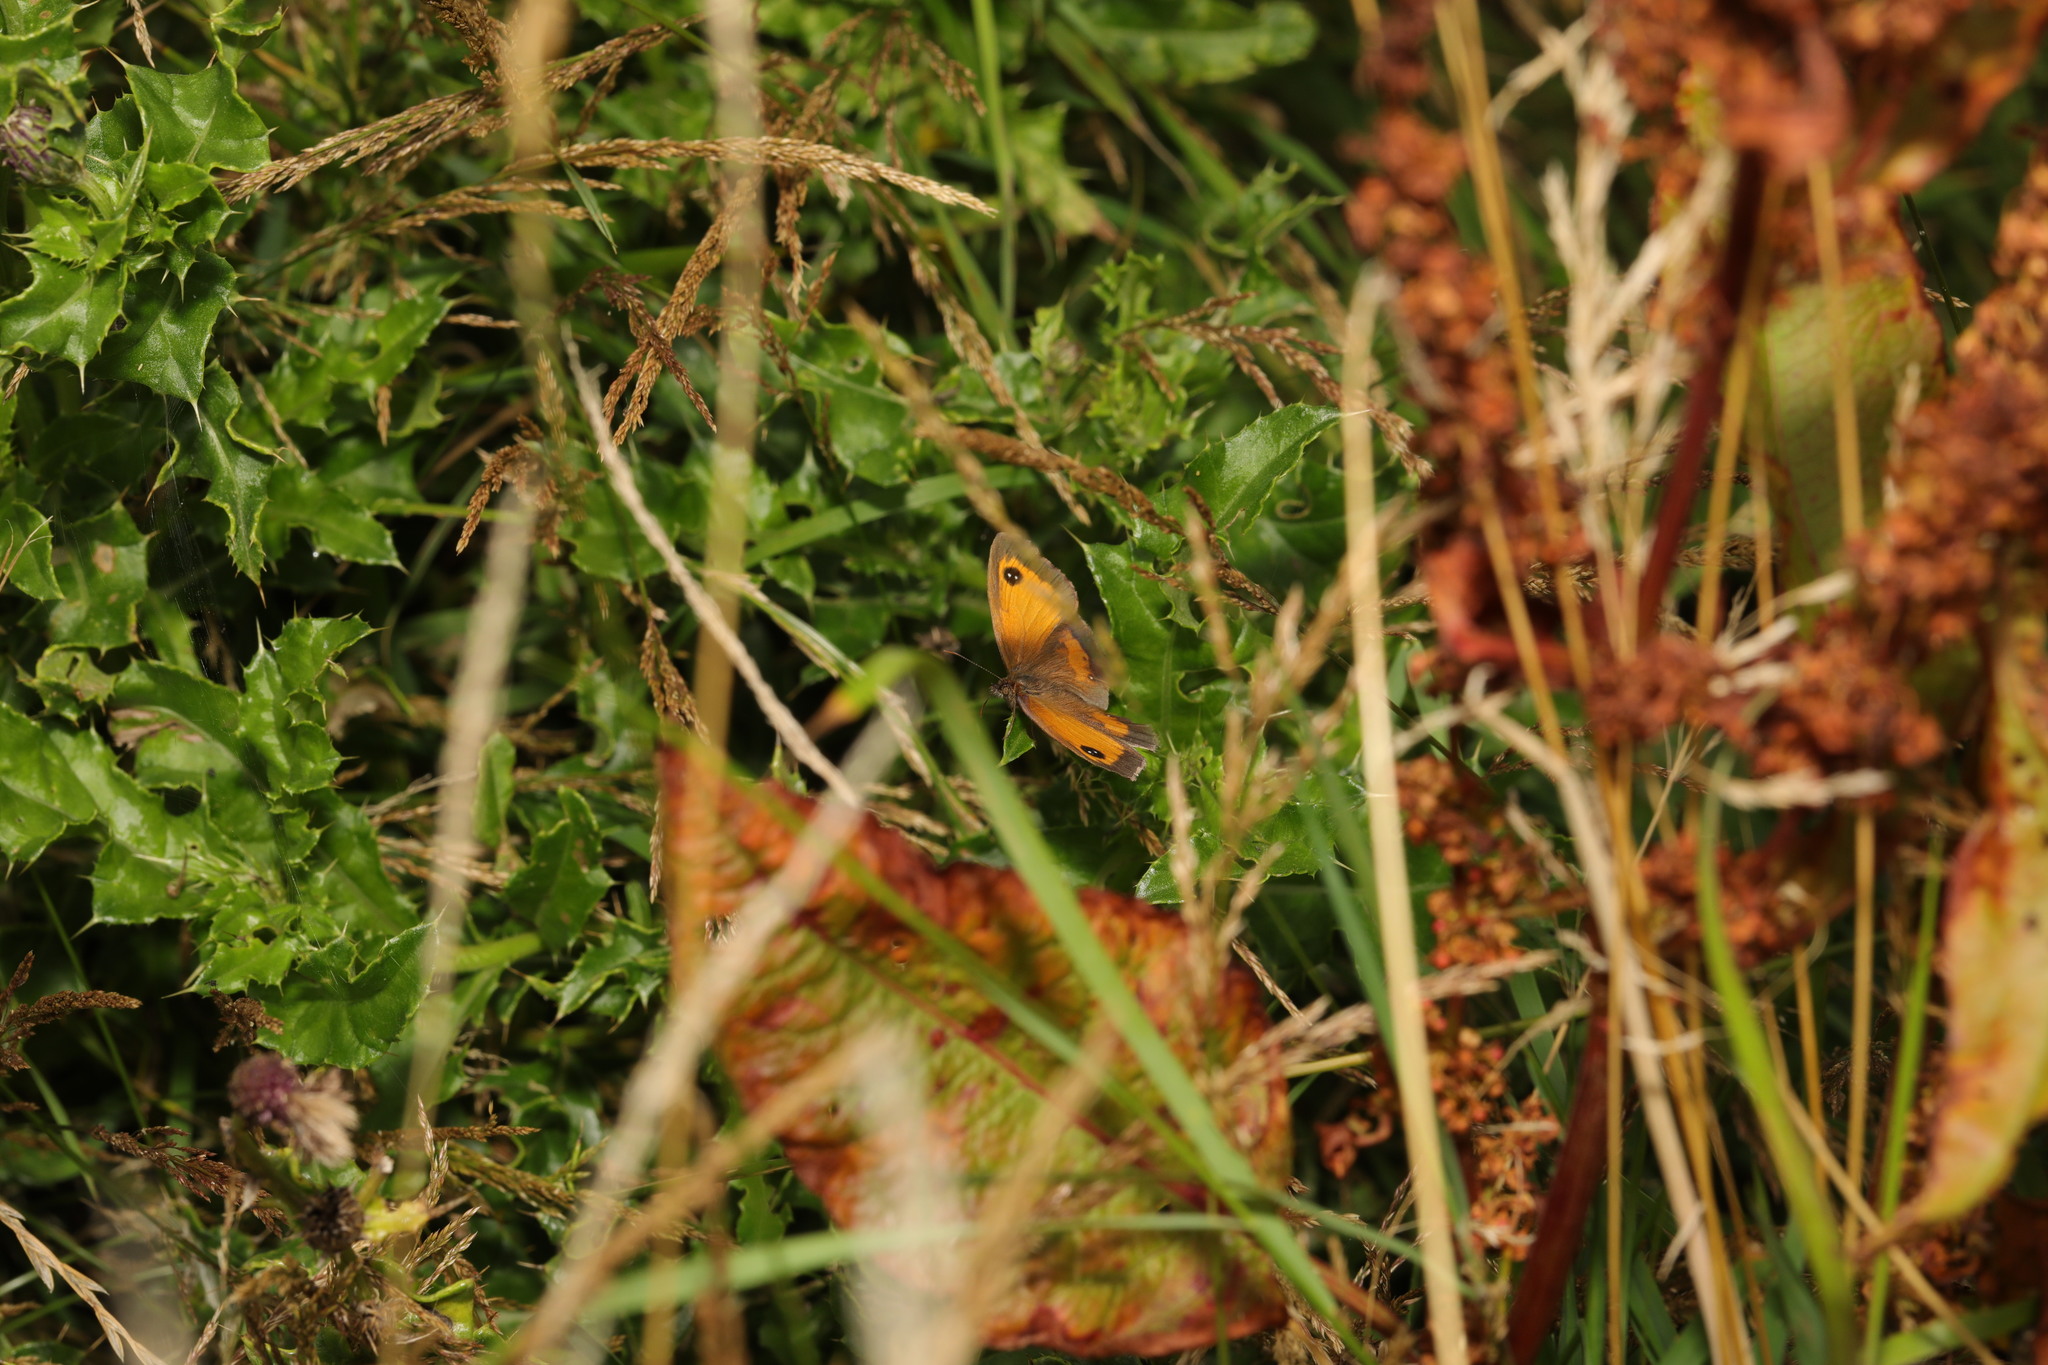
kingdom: Animalia
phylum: Arthropoda
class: Insecta
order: Lepidoptera
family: Nymphalidae
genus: Pyronia
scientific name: Pyronia tithonus
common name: Gatekeeper
